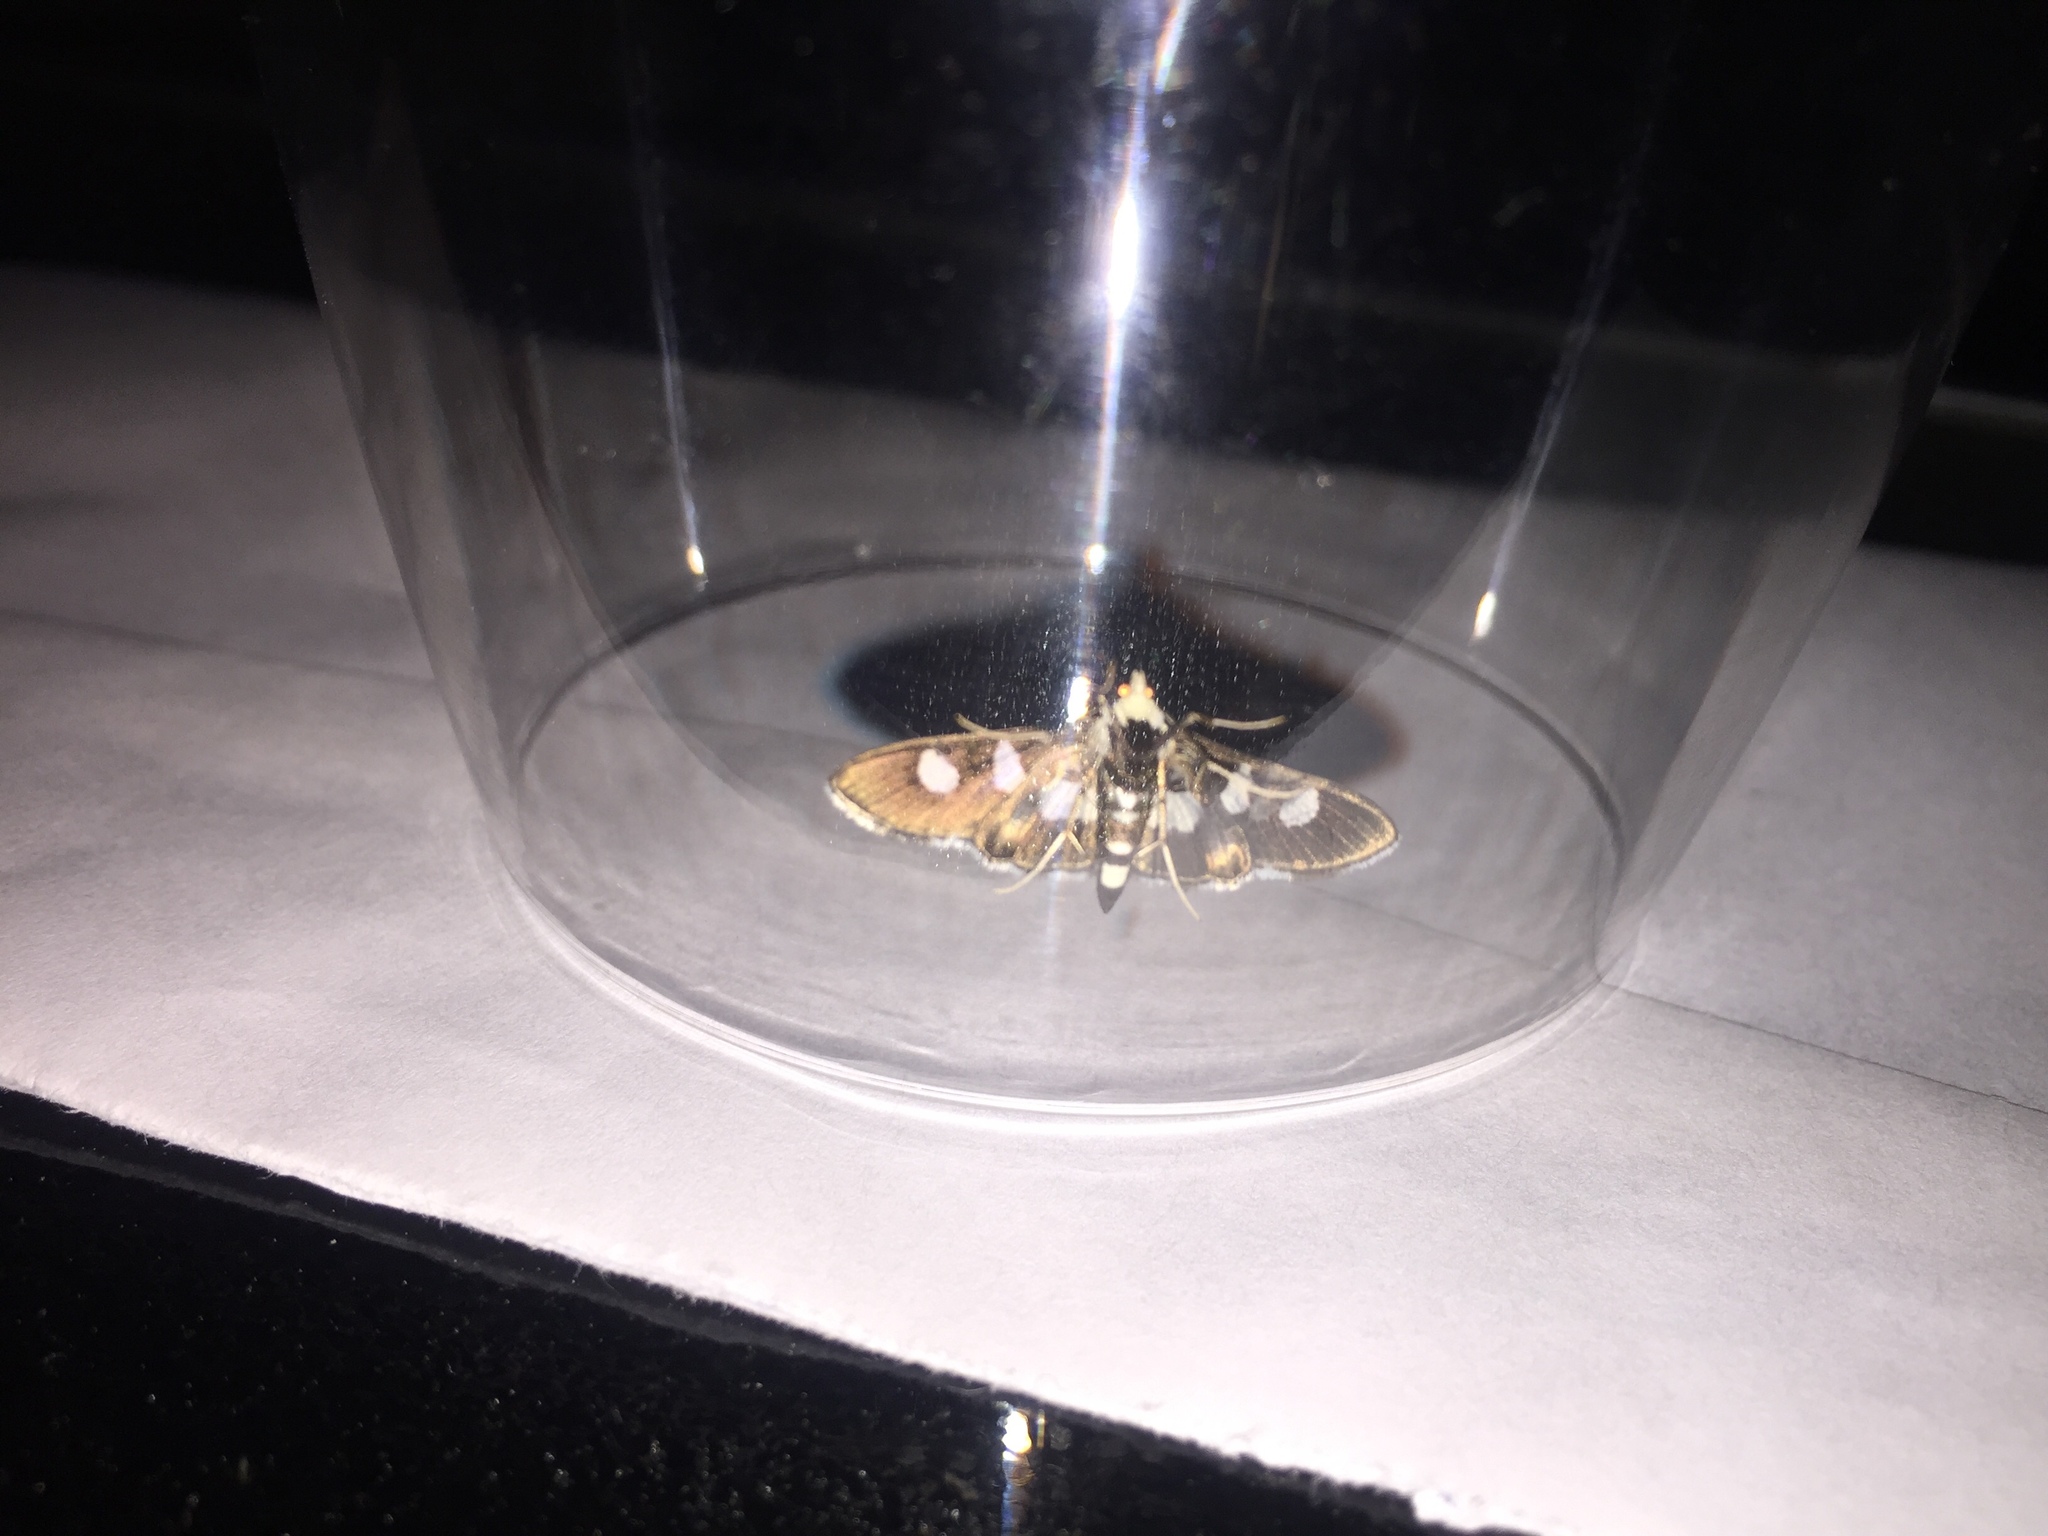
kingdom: Animalia
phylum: Arthropoda
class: Insecta
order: Lepidoptera
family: Crambidae
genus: Desmia
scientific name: Desmia funeralis
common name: Grape leaf folder moth
